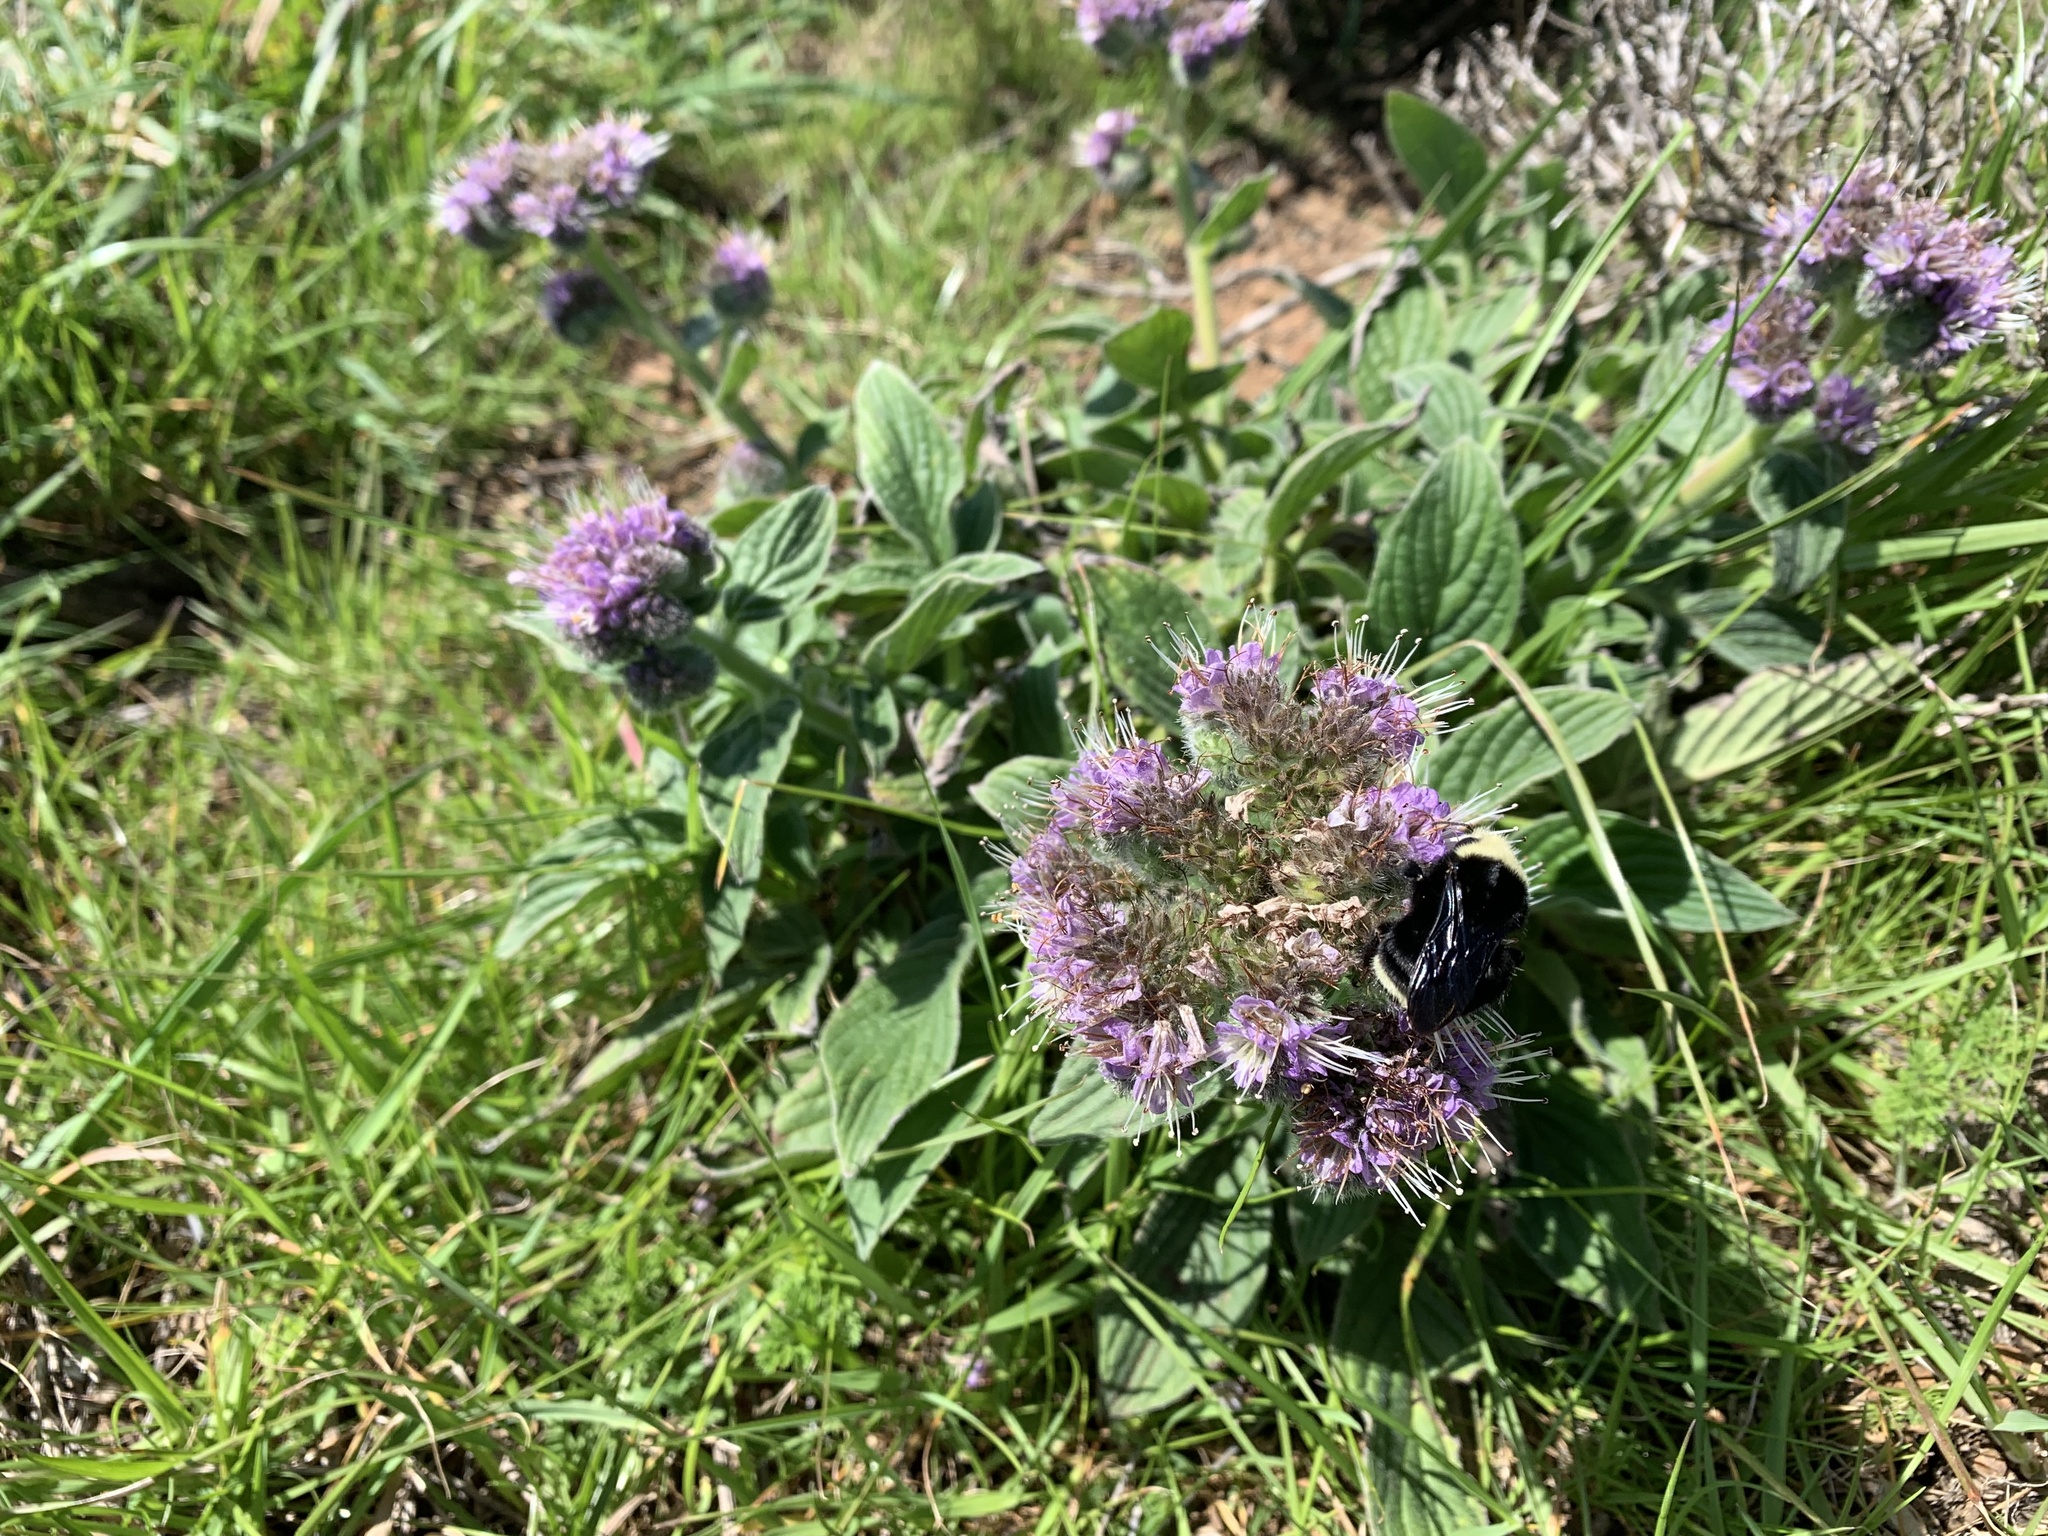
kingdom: Plantae
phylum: Tracheophyta
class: Magnoliopsida
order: Boraginales
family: Hydrophyllaceae
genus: Phacelia
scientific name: Phacelia californica
